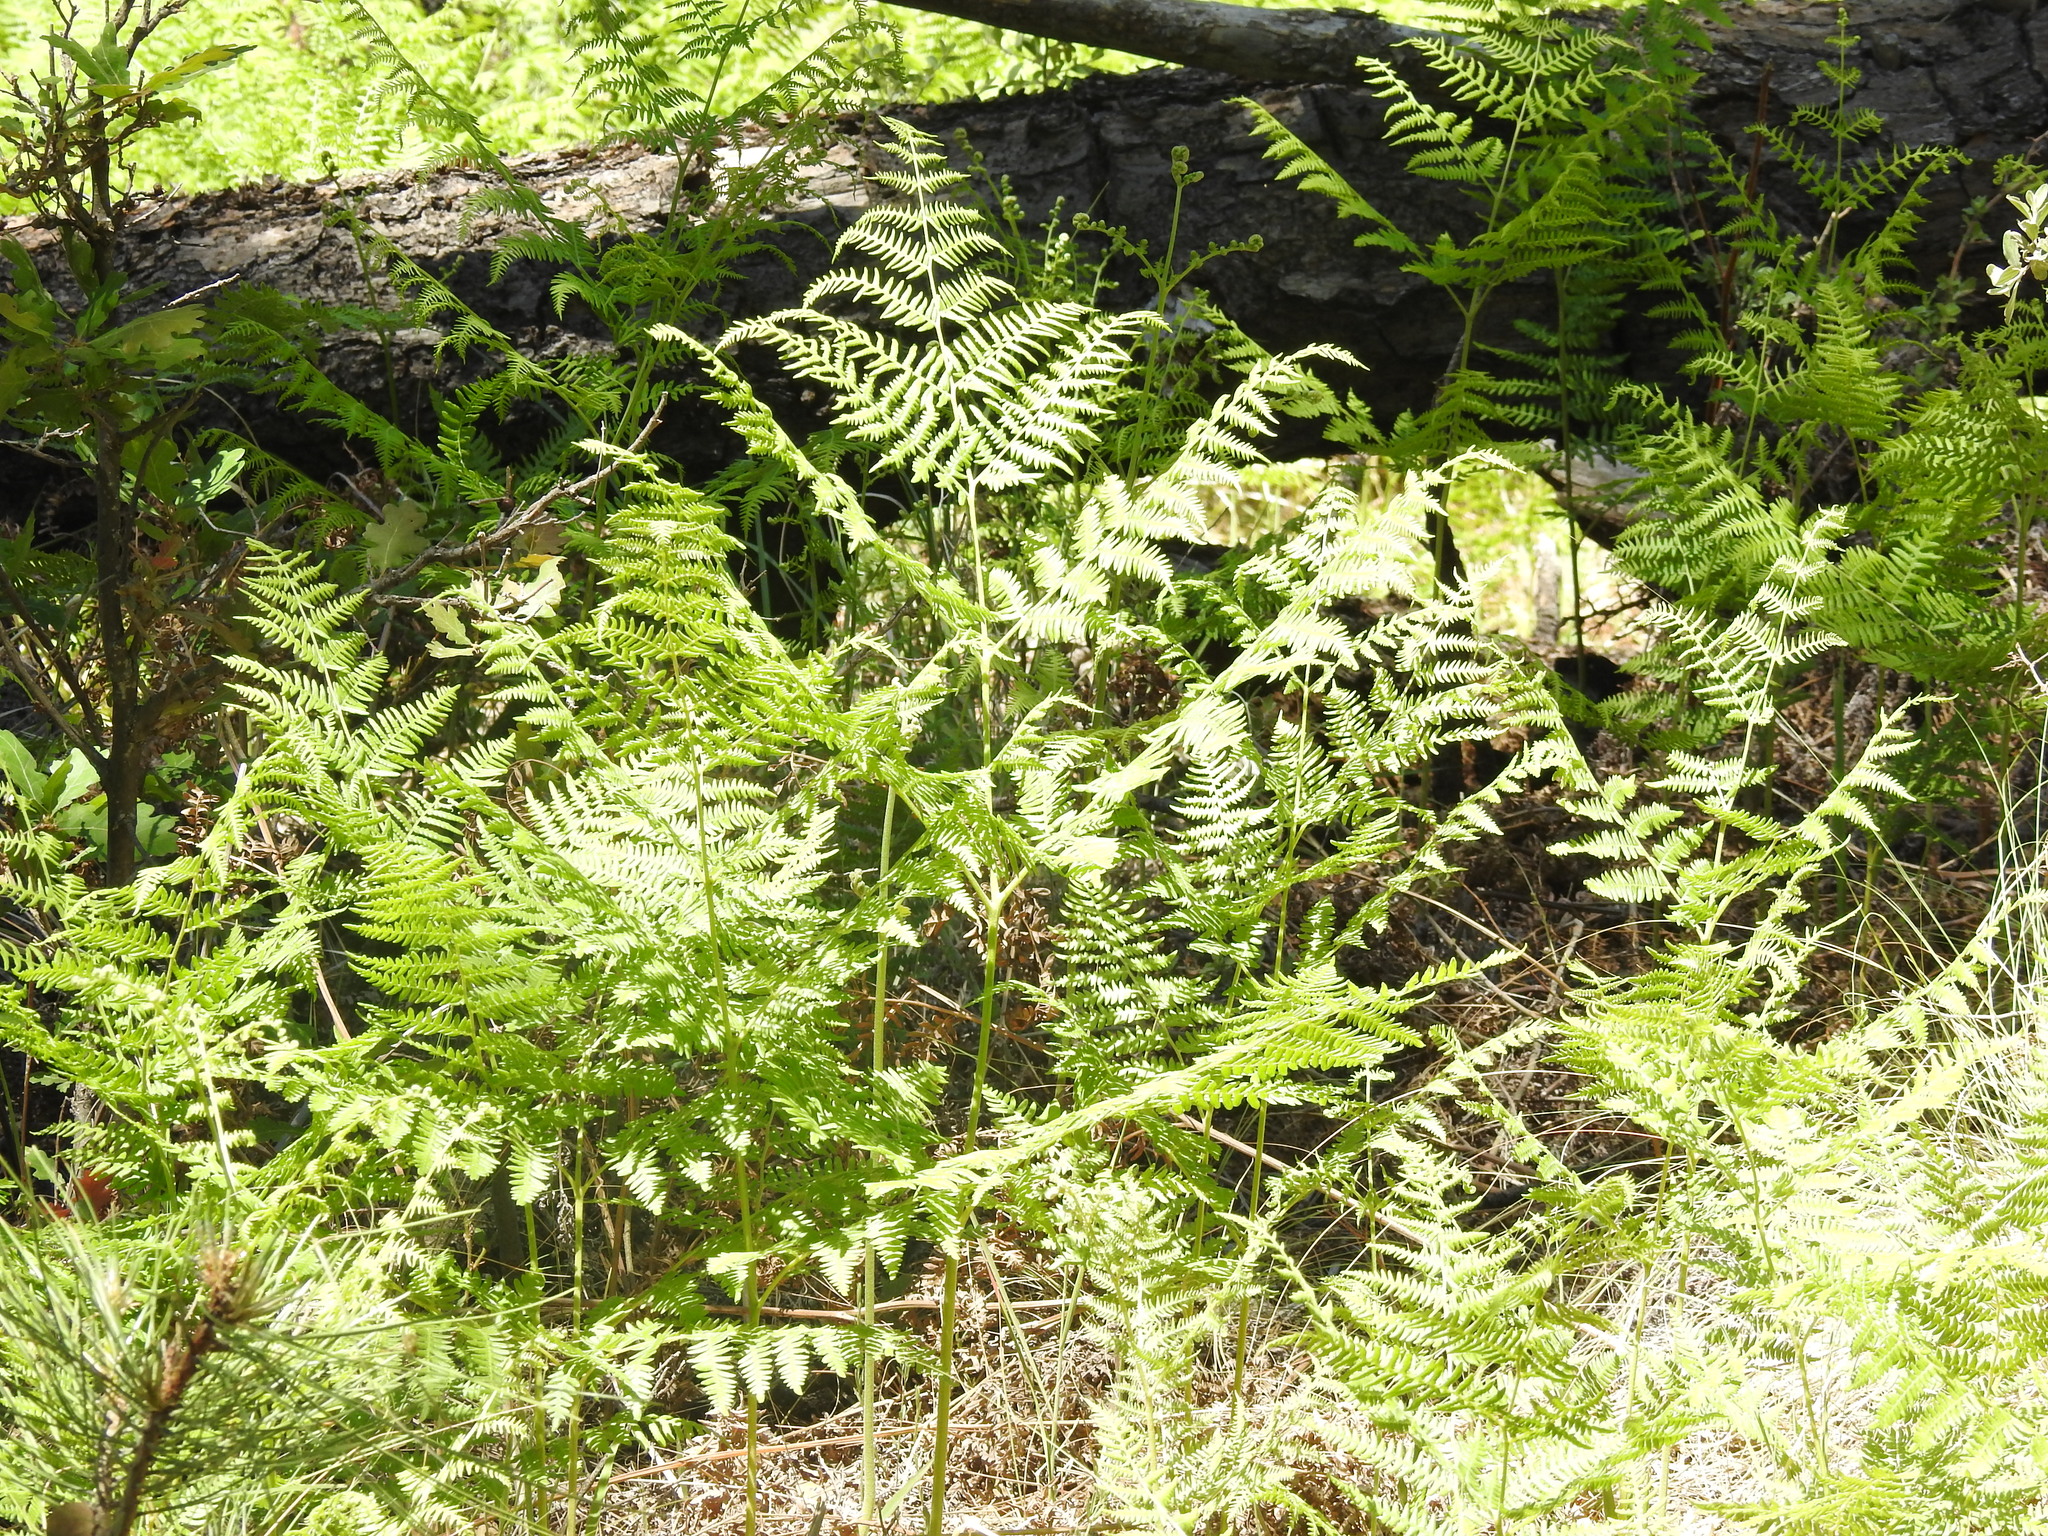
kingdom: Plantae
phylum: Tracheophyta
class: Polypodiopsida
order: Polypodiales
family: Dennstaedtiaceae
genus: Pteridium
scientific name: Pteridium aquilinum
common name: Bracken
